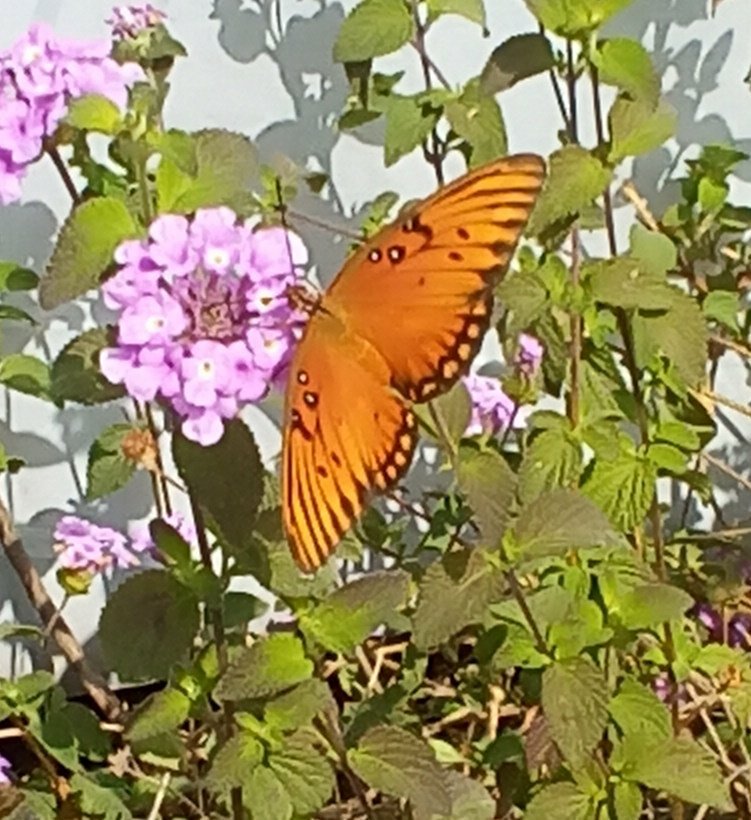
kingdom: Animalia
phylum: Arthropoda
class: Insecta
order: Lepidoptera
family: Nymphalidae
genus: Dione
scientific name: Dione vanillae
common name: Gulf fritillary
